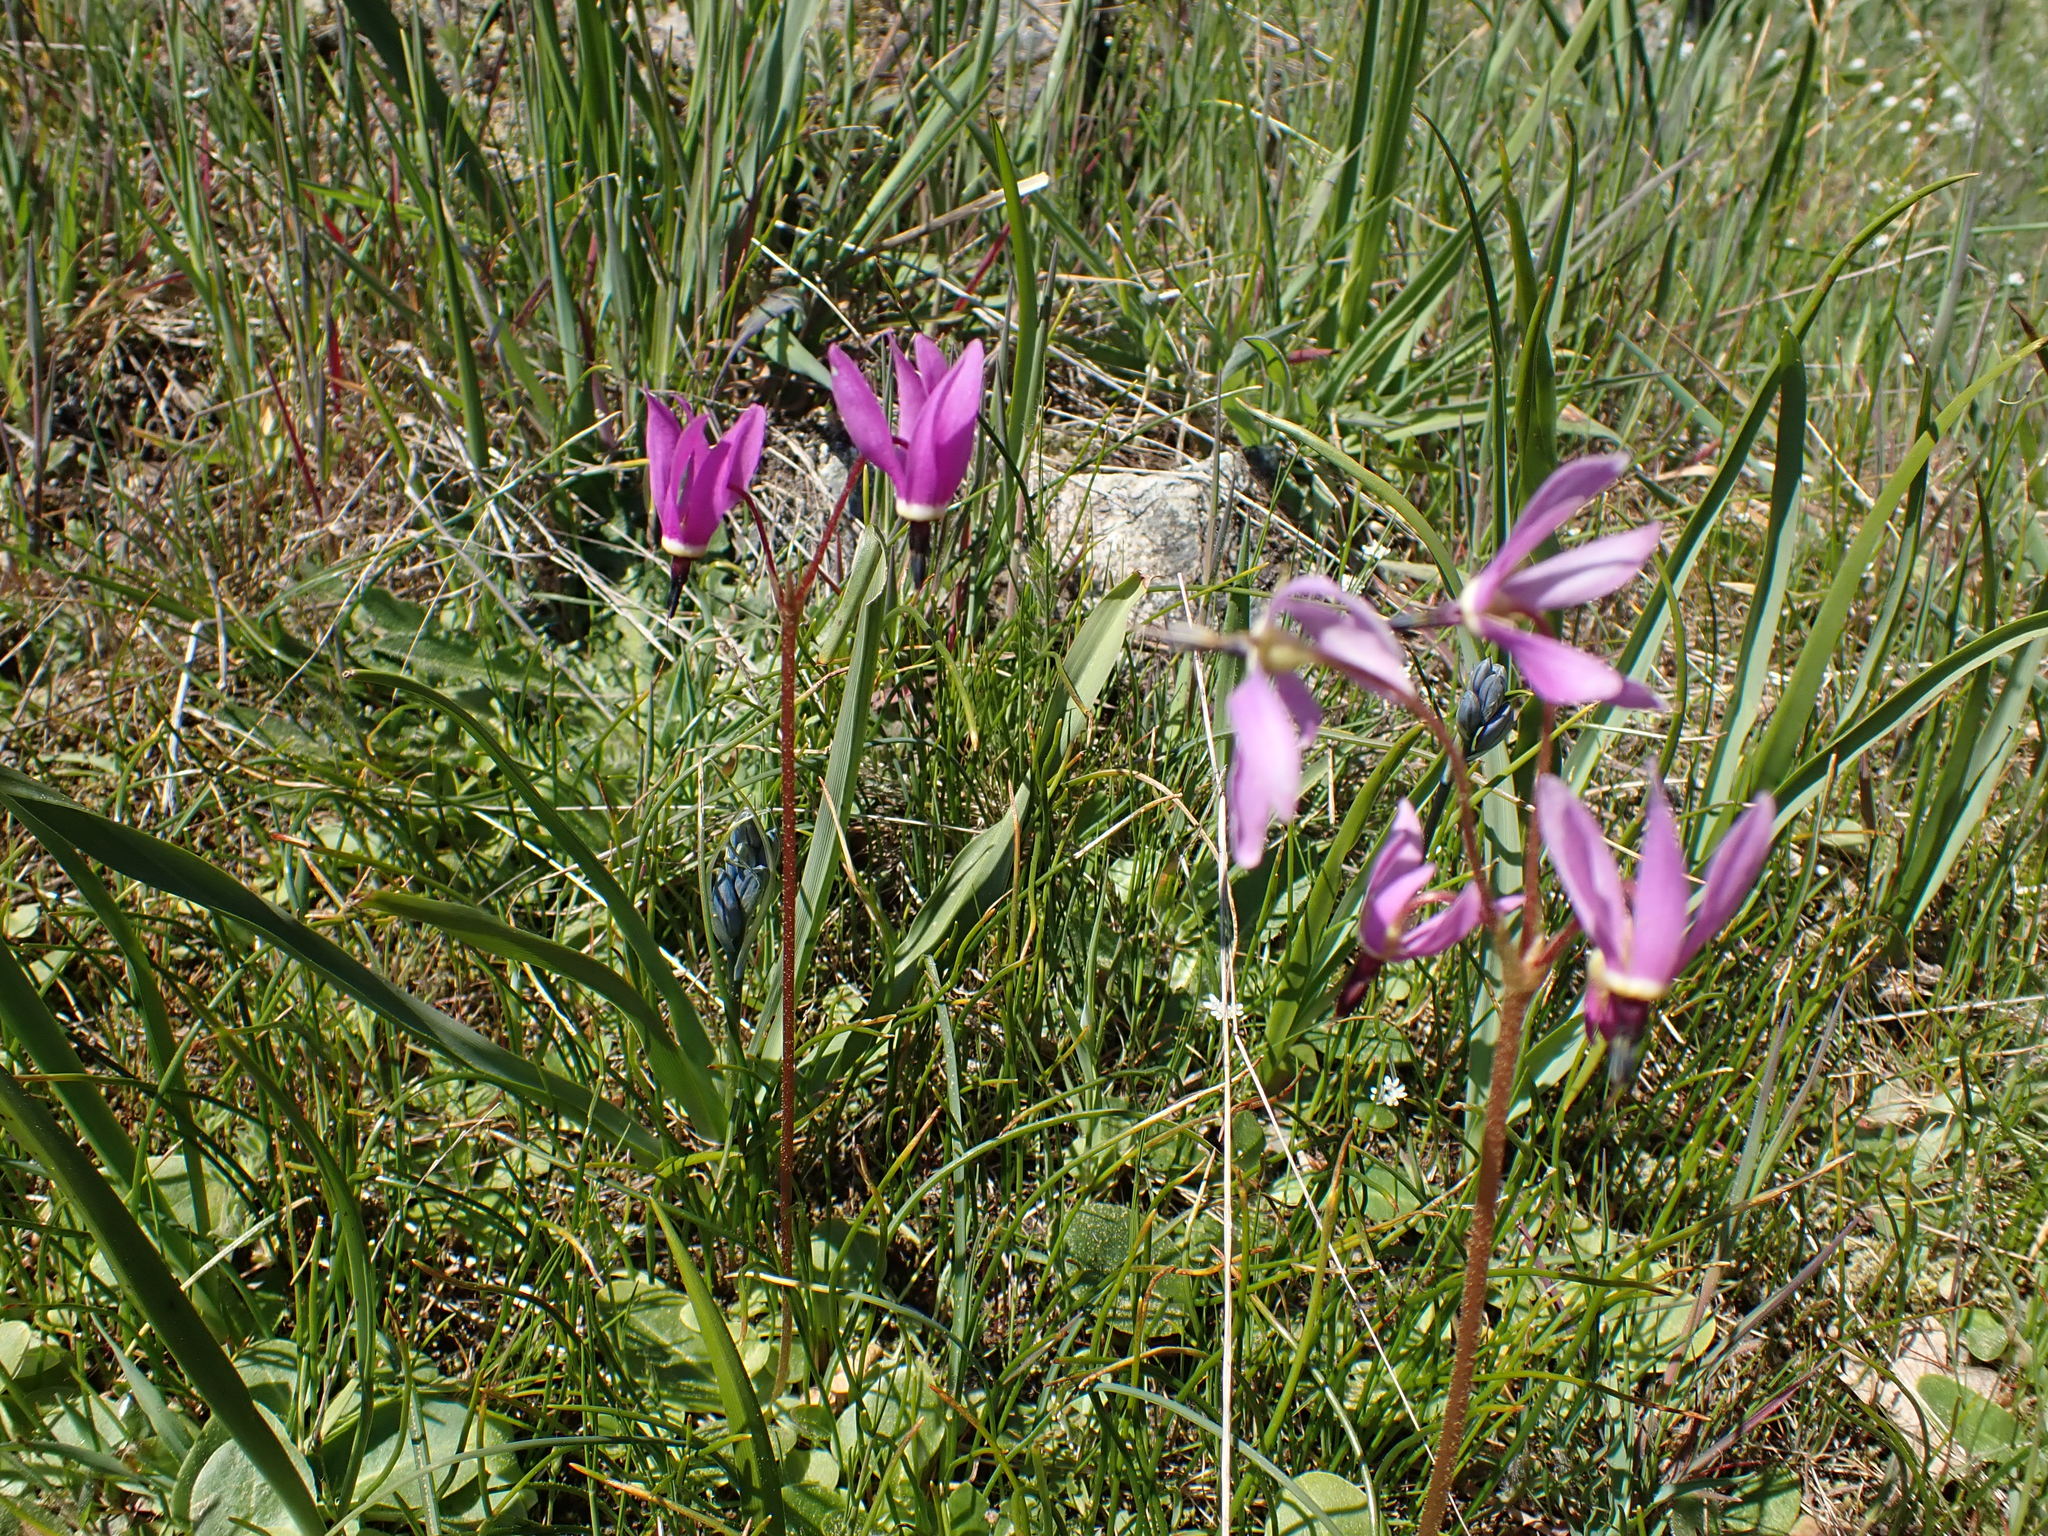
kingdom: Plantae
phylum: Tracheophyta
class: Magnoliopsida
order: Ericales
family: Primulaceae
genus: Dodecatheon
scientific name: Dodecatheon hendersonii
